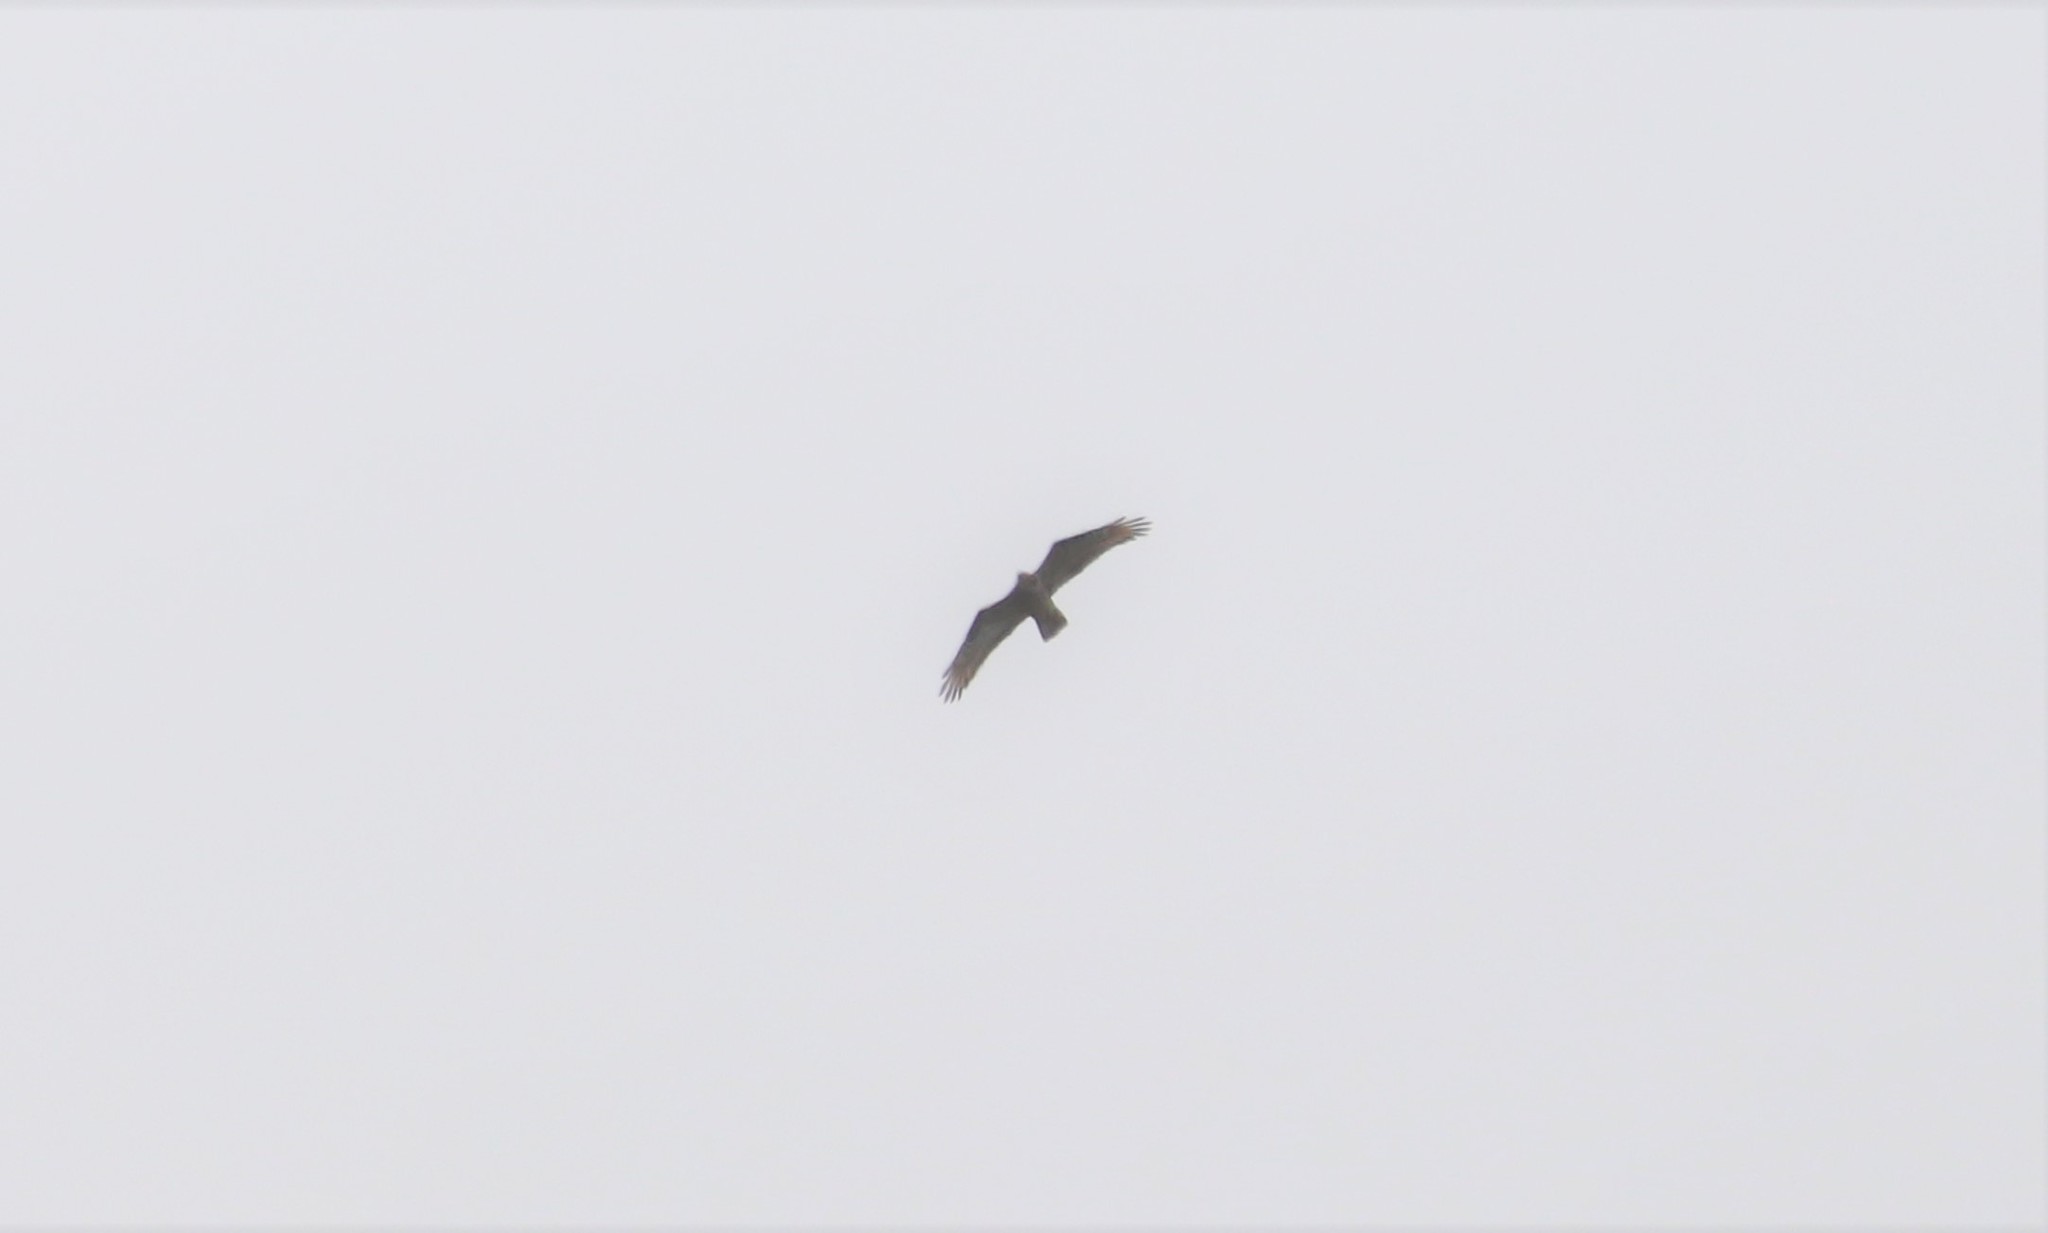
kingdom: Animalia
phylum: Chordata
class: Aves
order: Accipitriformes
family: Accipitridae
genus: Pernis
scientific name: Pernis apivorus
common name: European honey buzzard
